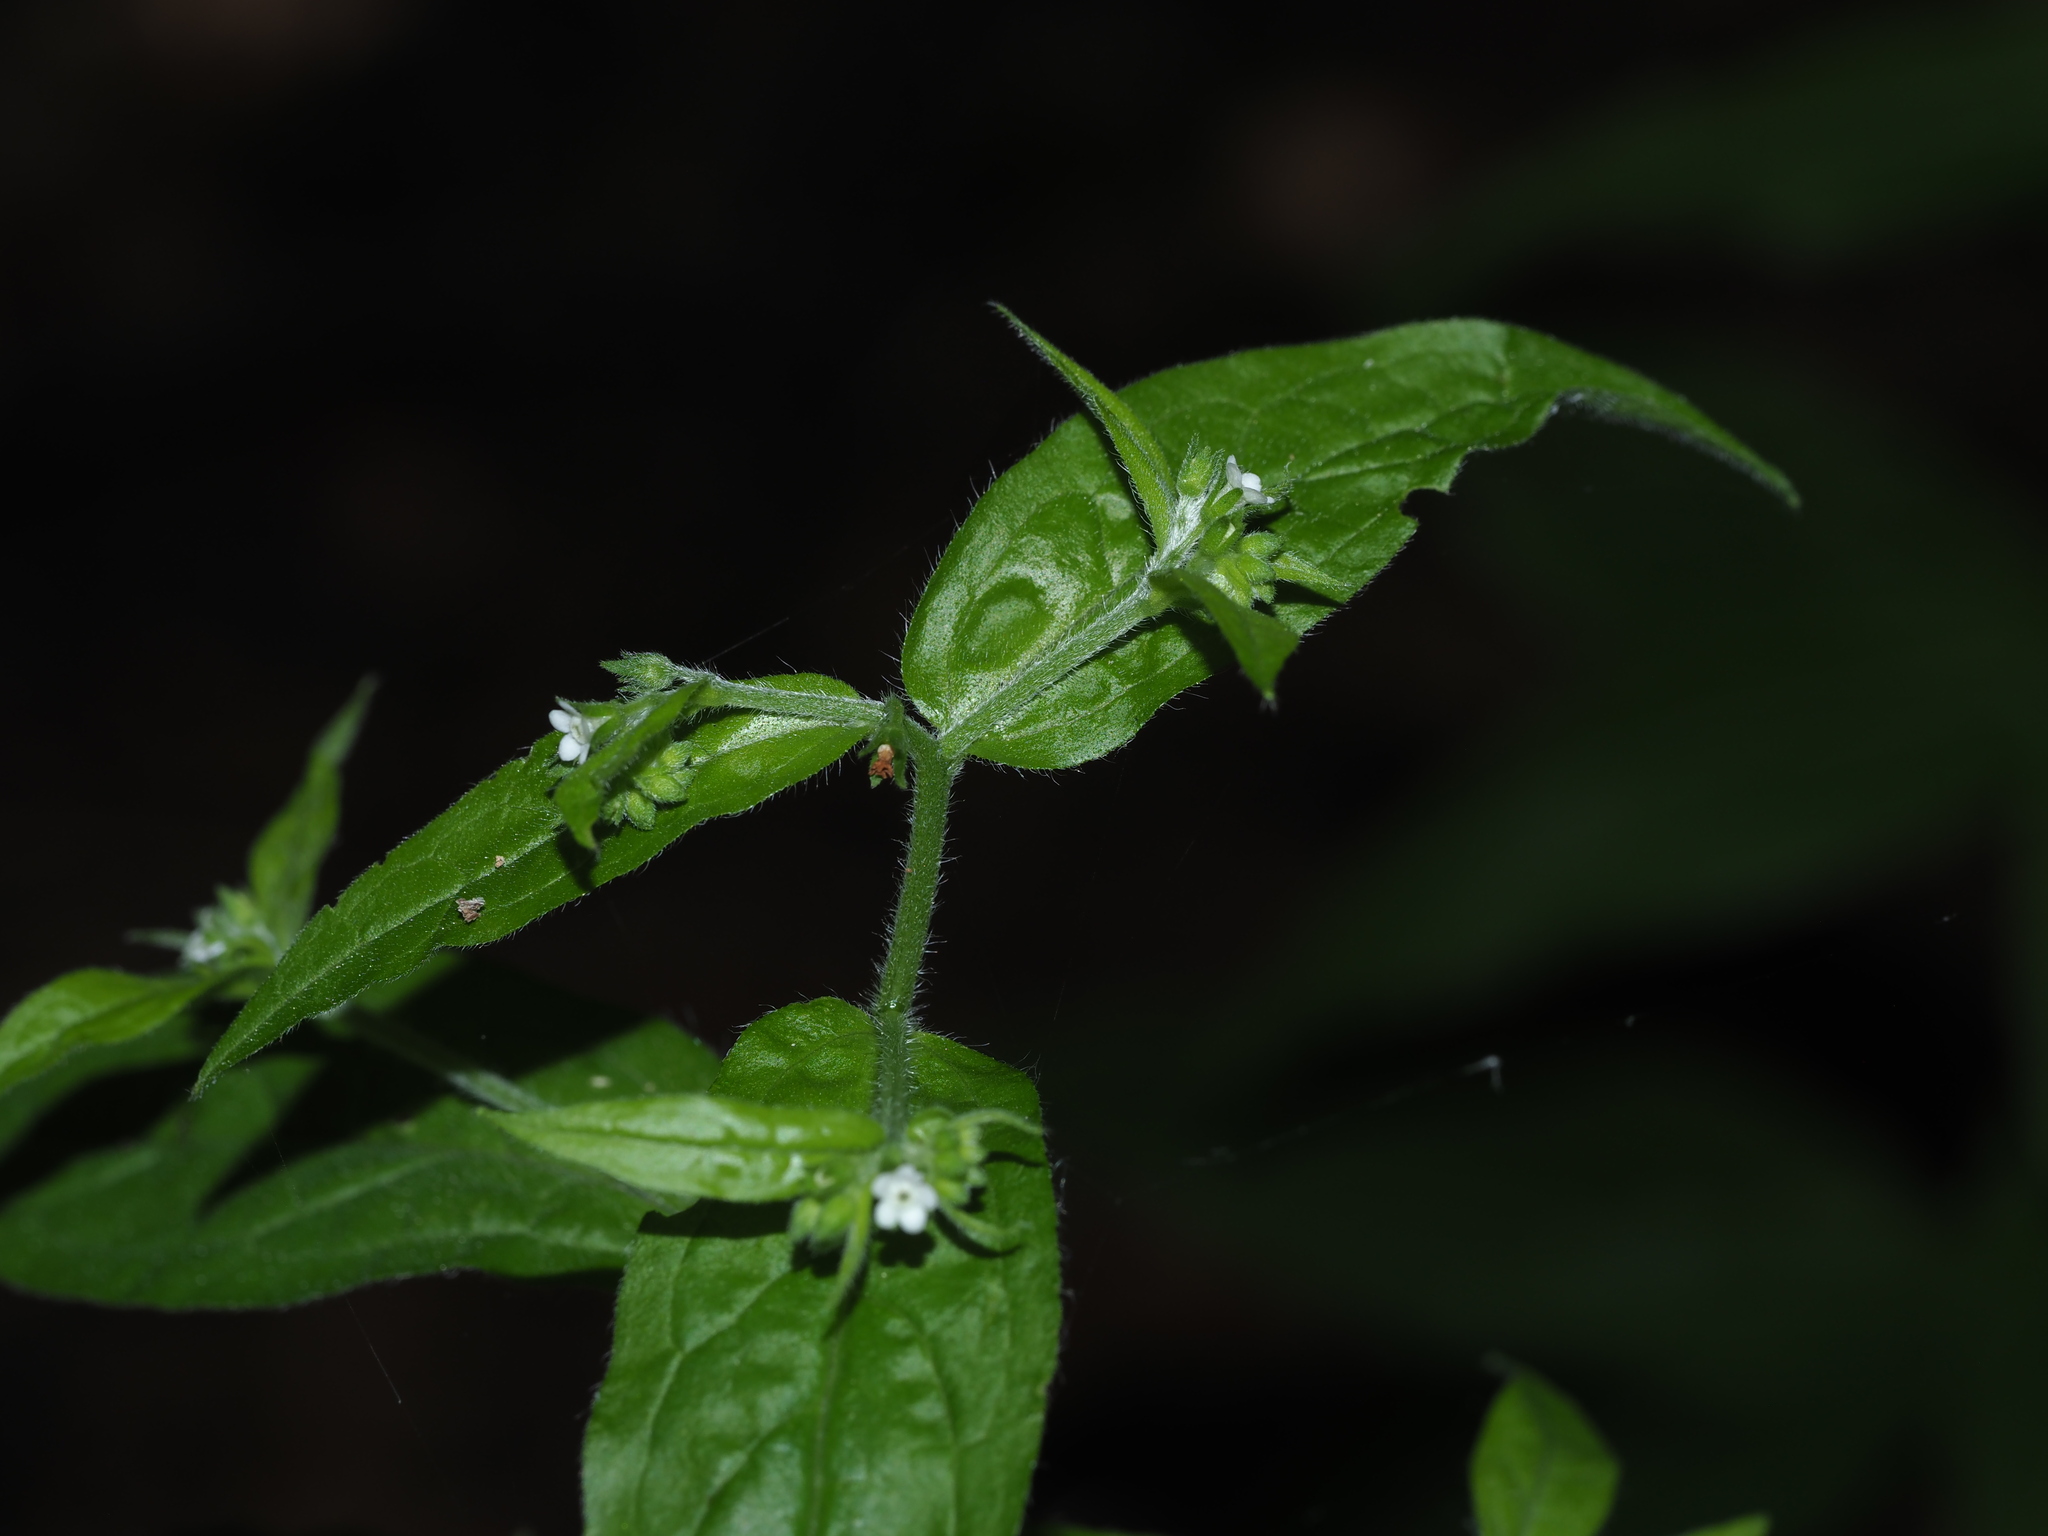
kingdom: Plantae
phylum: Tracheophyta
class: Magnoliopsida
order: Boraginales
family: Boraginaceae
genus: Hackelia
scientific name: Hackelia virginiana
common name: Beggar's-lice
